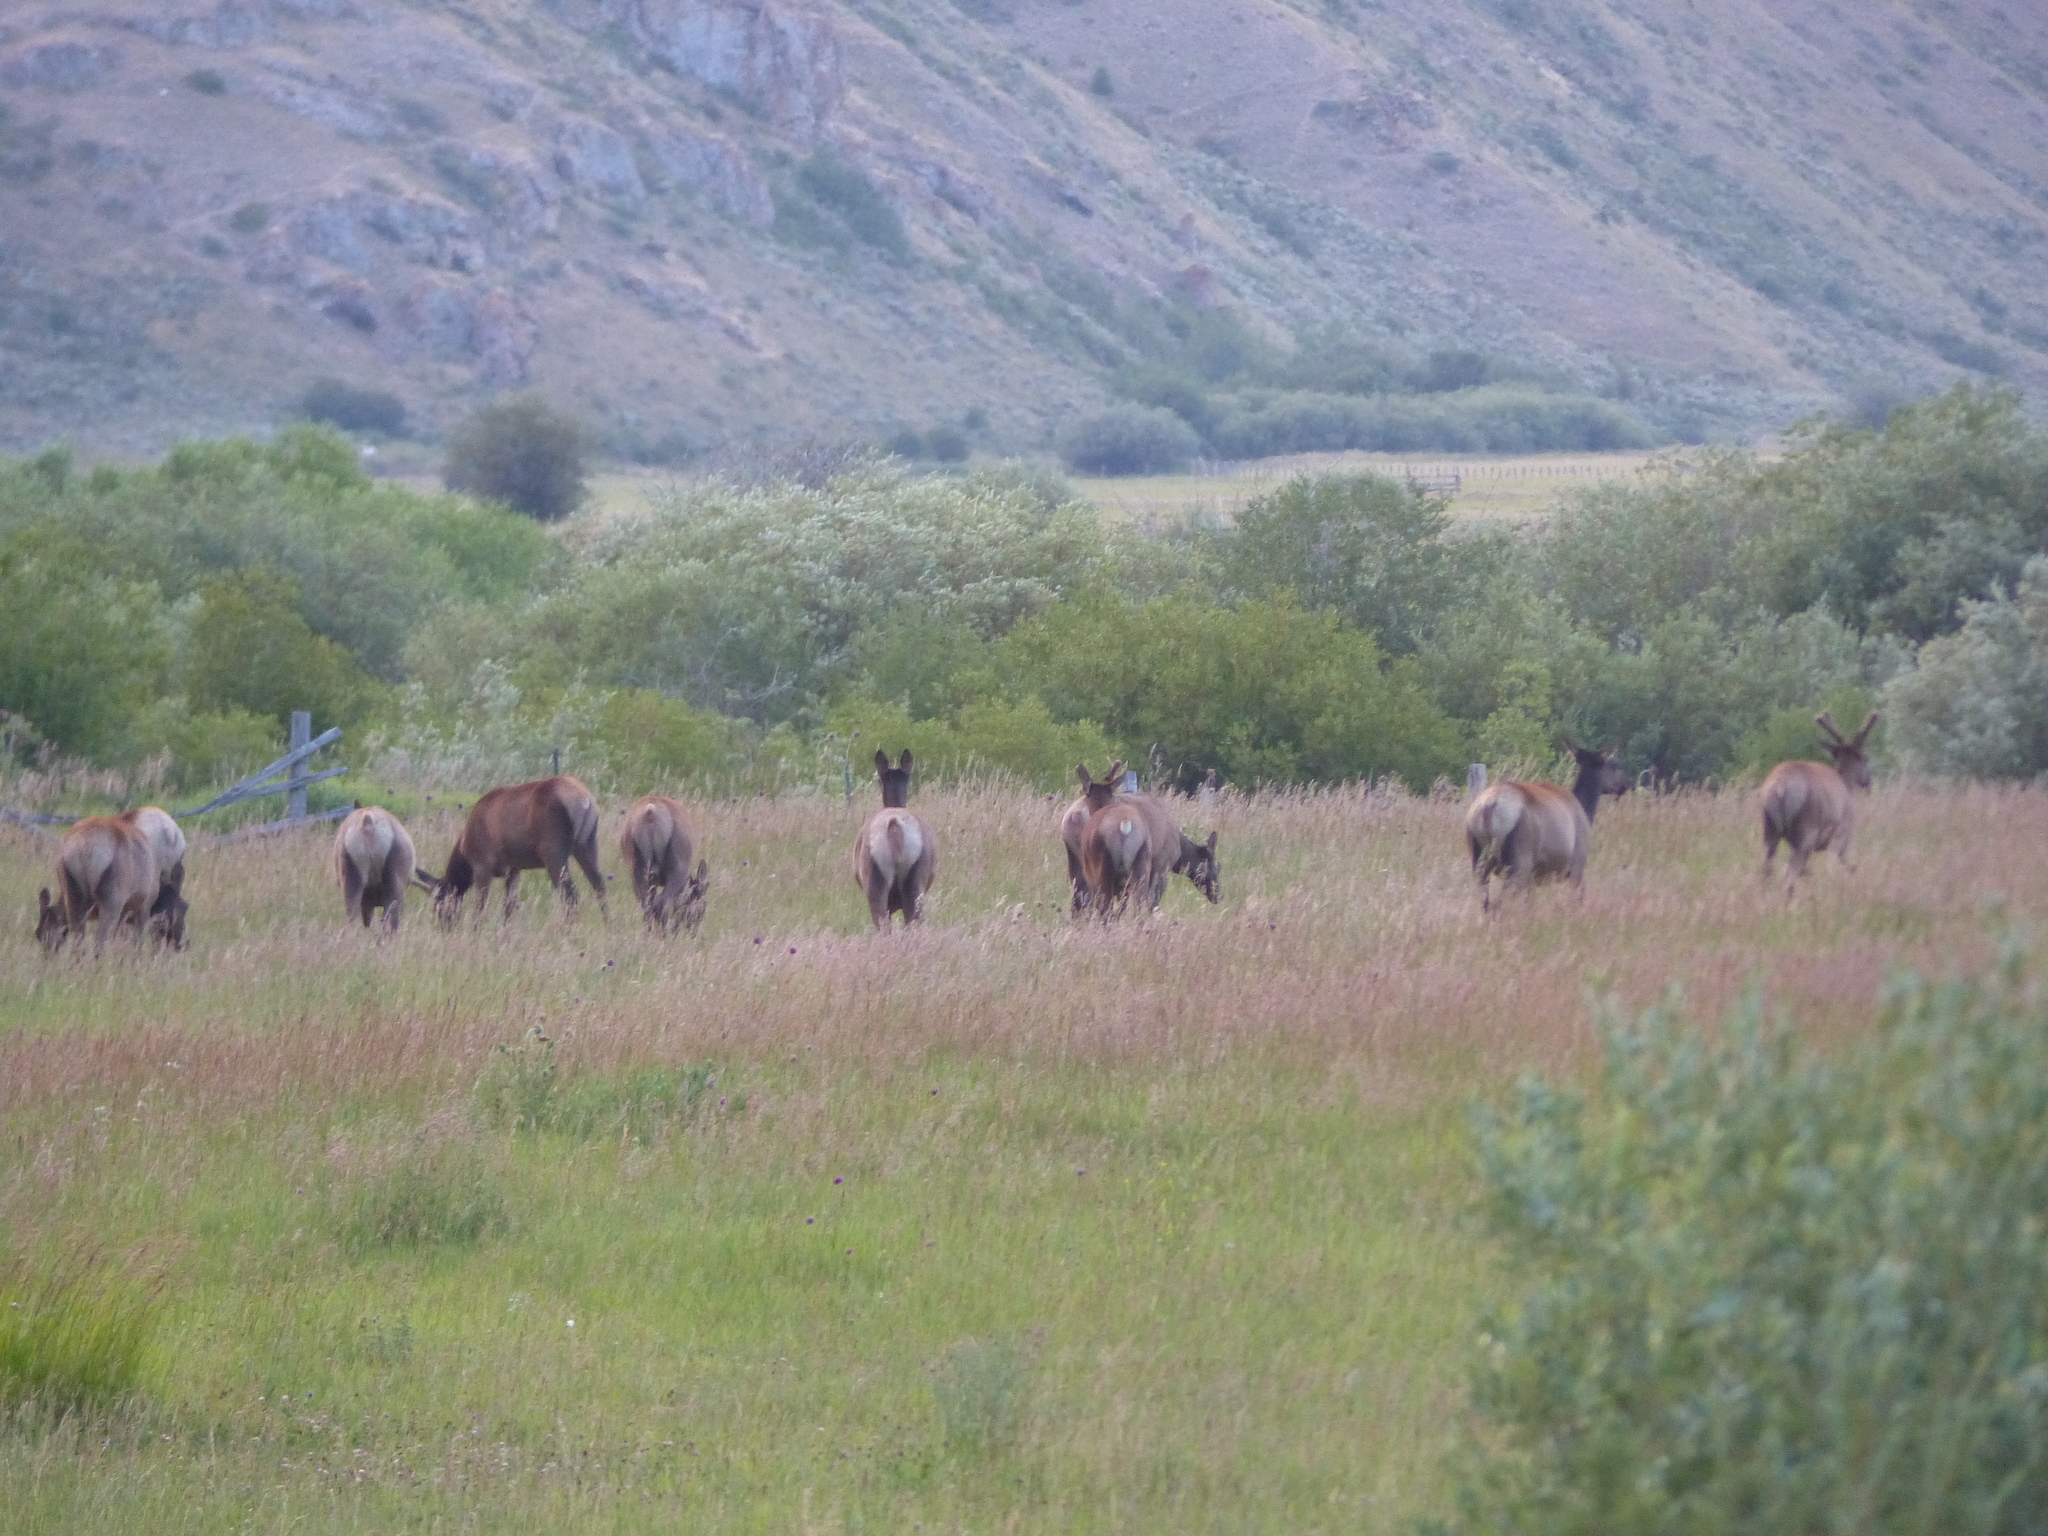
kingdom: Animalia
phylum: Chordata
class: Mammalia
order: Artiodactyla
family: Cervidae
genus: Cervus
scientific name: Cervus elaphus
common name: Red deer
